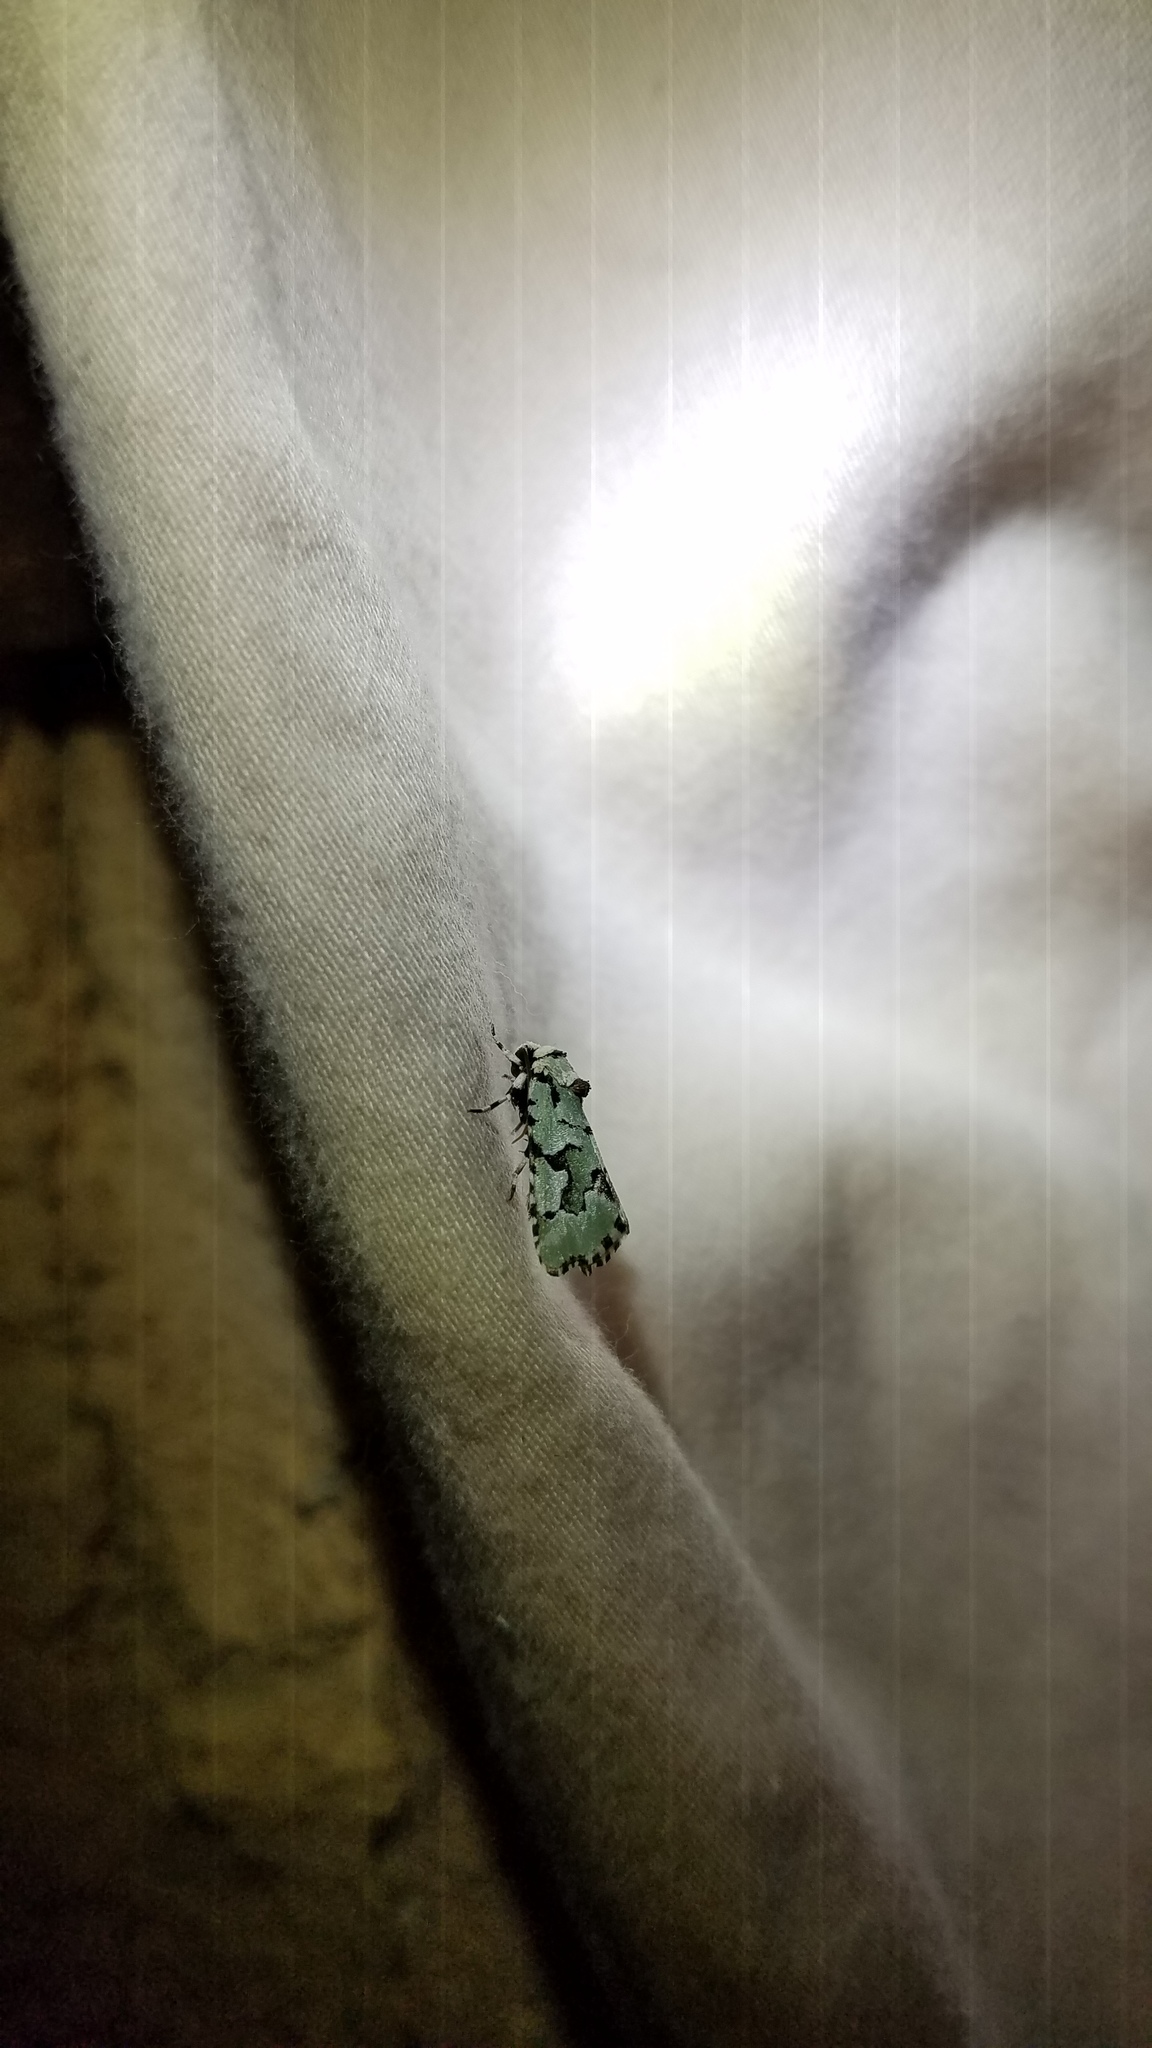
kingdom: Animalia
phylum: Arthropoda
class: Insecta
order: Lepidoptera
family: Noctuidae
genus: Emarginea
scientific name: Emarginea percara
